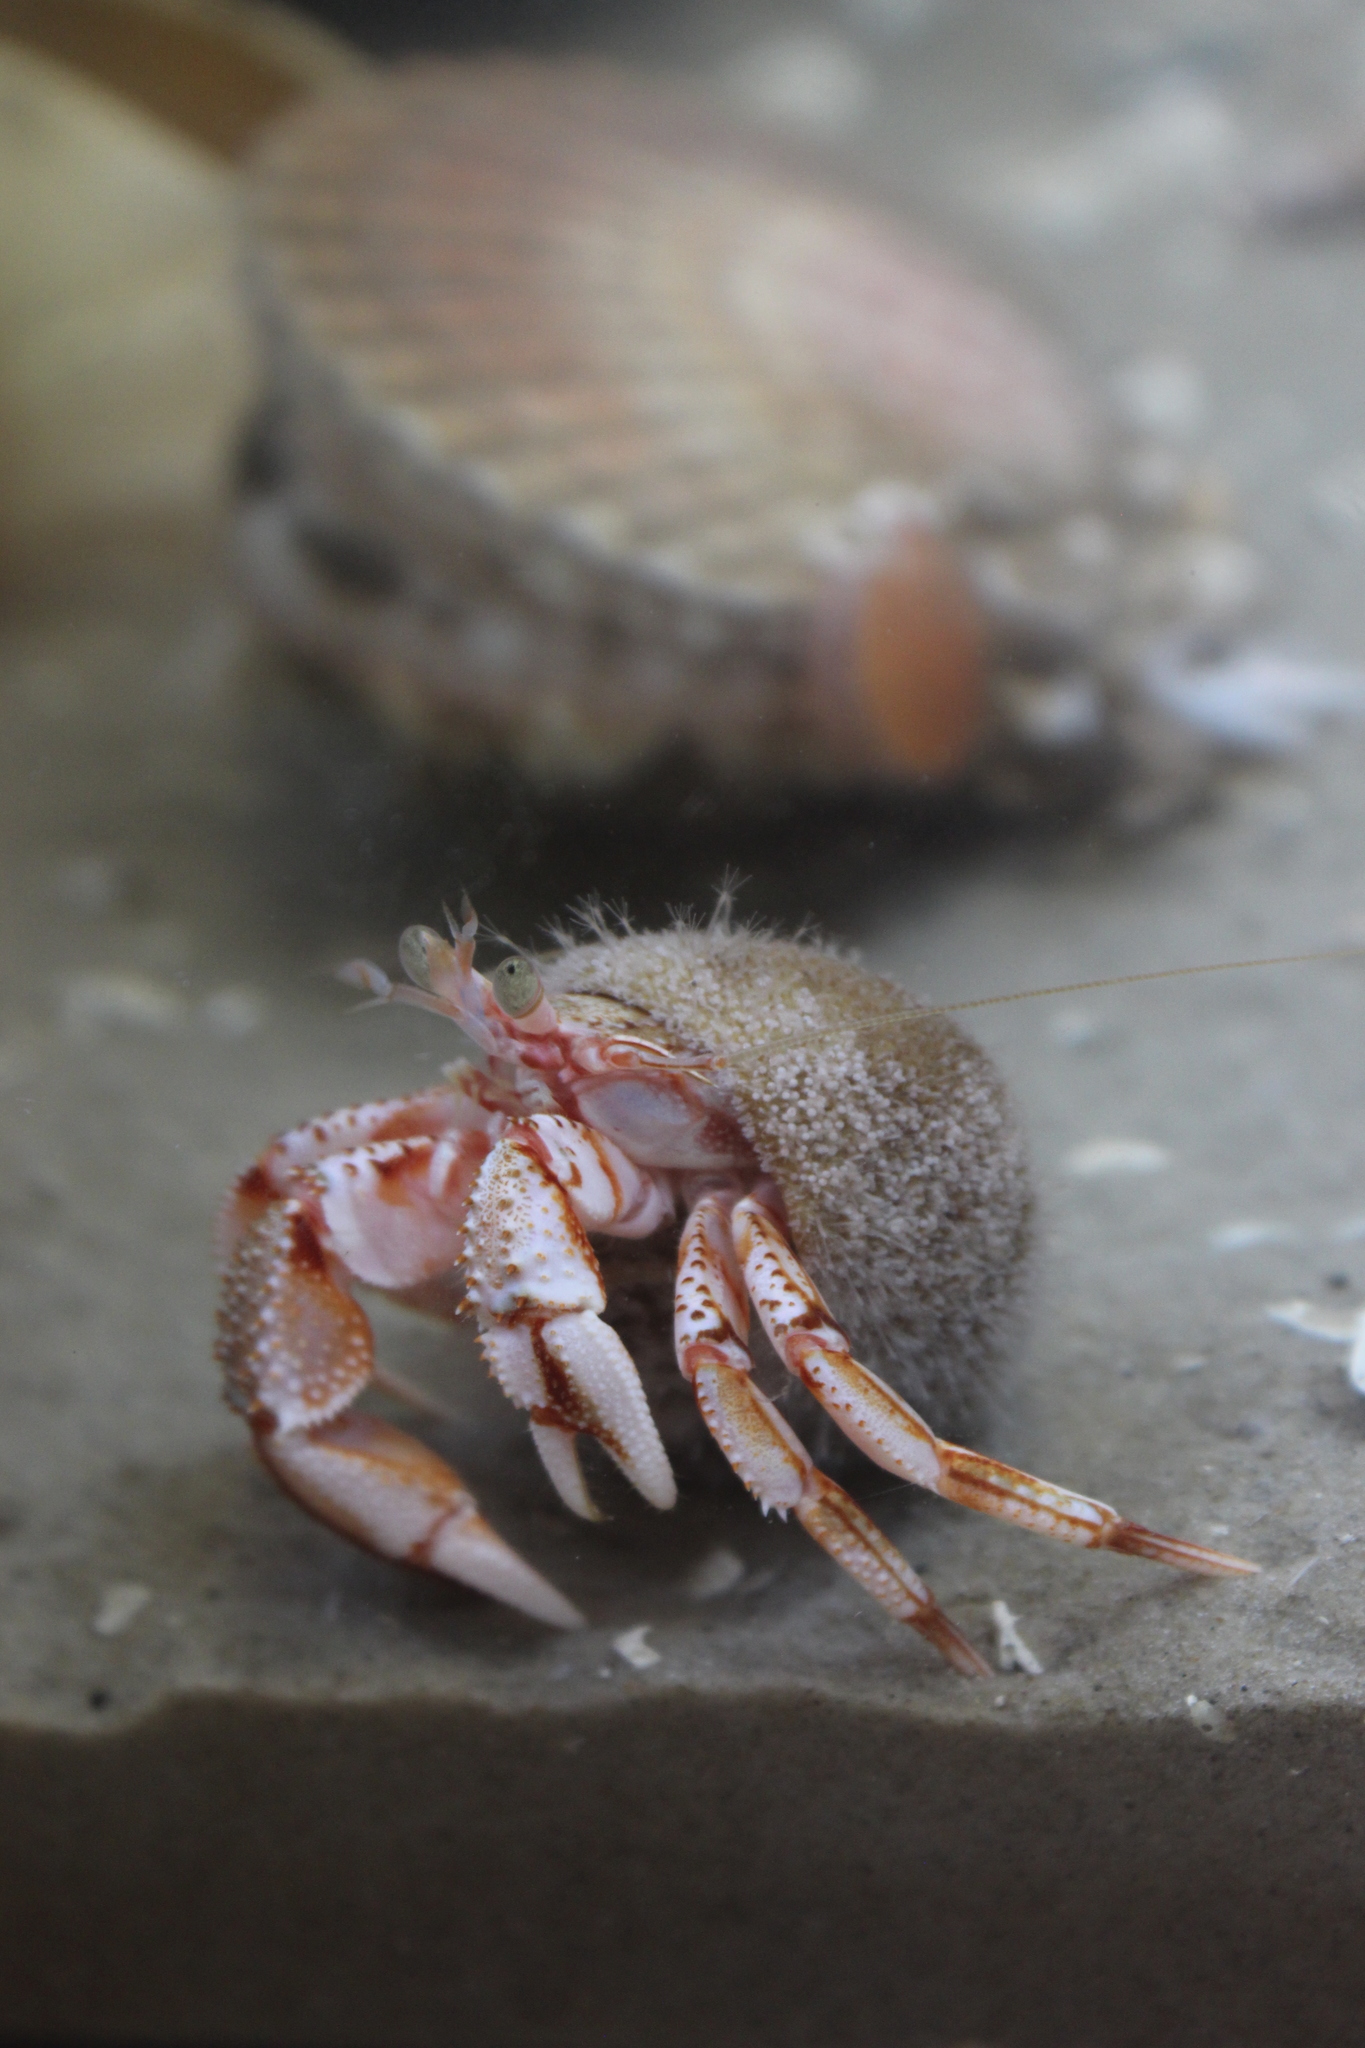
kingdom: Animalia
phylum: Arthropoda
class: Malacostraca
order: Decapoda
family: Paguridae
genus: Pagurus
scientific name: Pagurus bernhardus
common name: Hermit crab
